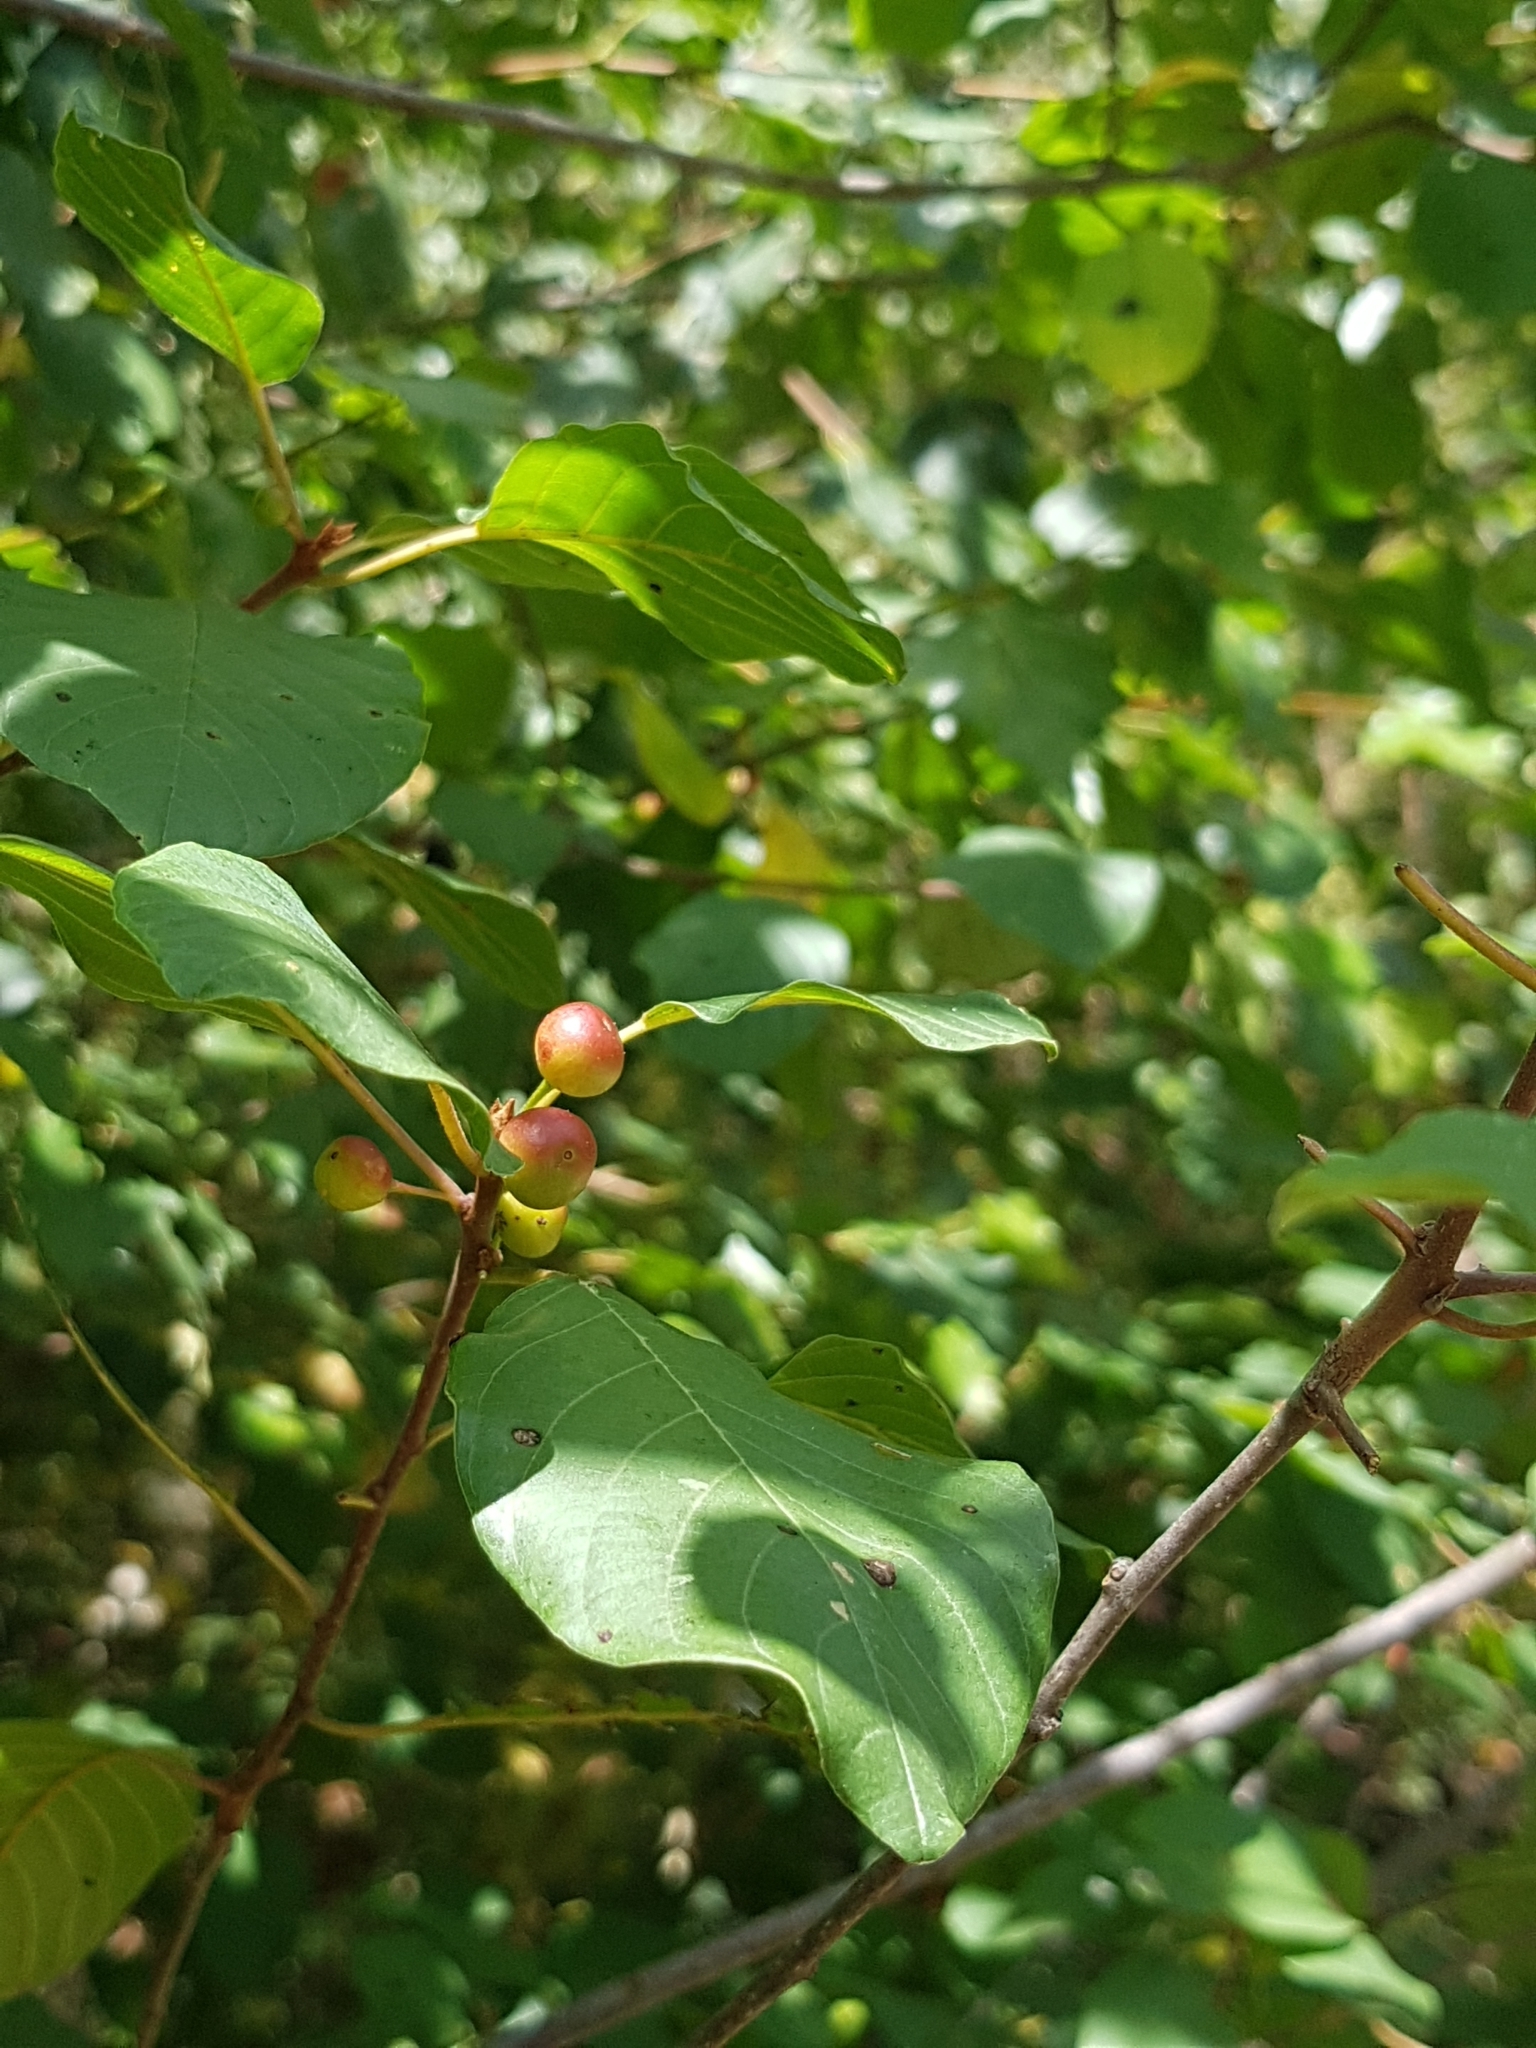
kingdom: Plantae
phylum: Tracheophyta
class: Magnoliopsida
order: Rosales
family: Rhamnaceae
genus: Frangula
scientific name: Frangula alnus
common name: Alder buckthorn
